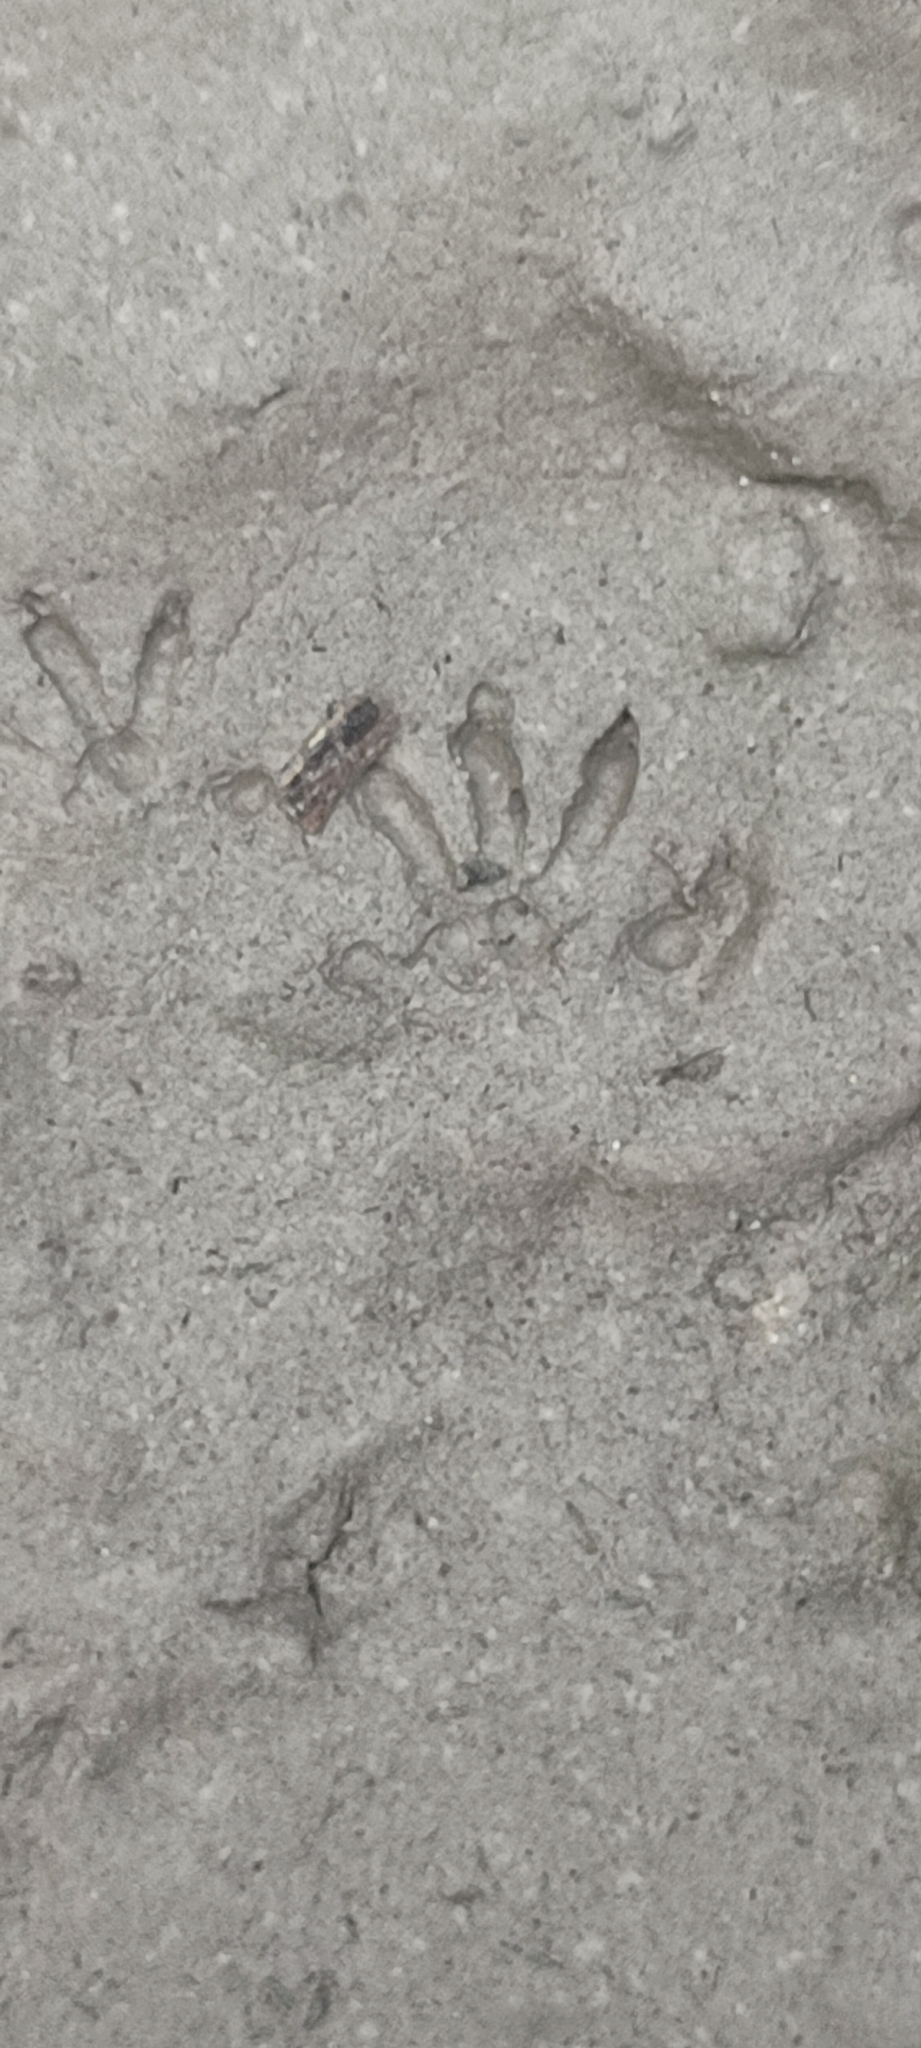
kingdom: Animalia
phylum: Chordata
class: Mammalia
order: Rodentia
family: Muridae
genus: Rattus
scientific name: Rattus rattus
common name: Black rat
